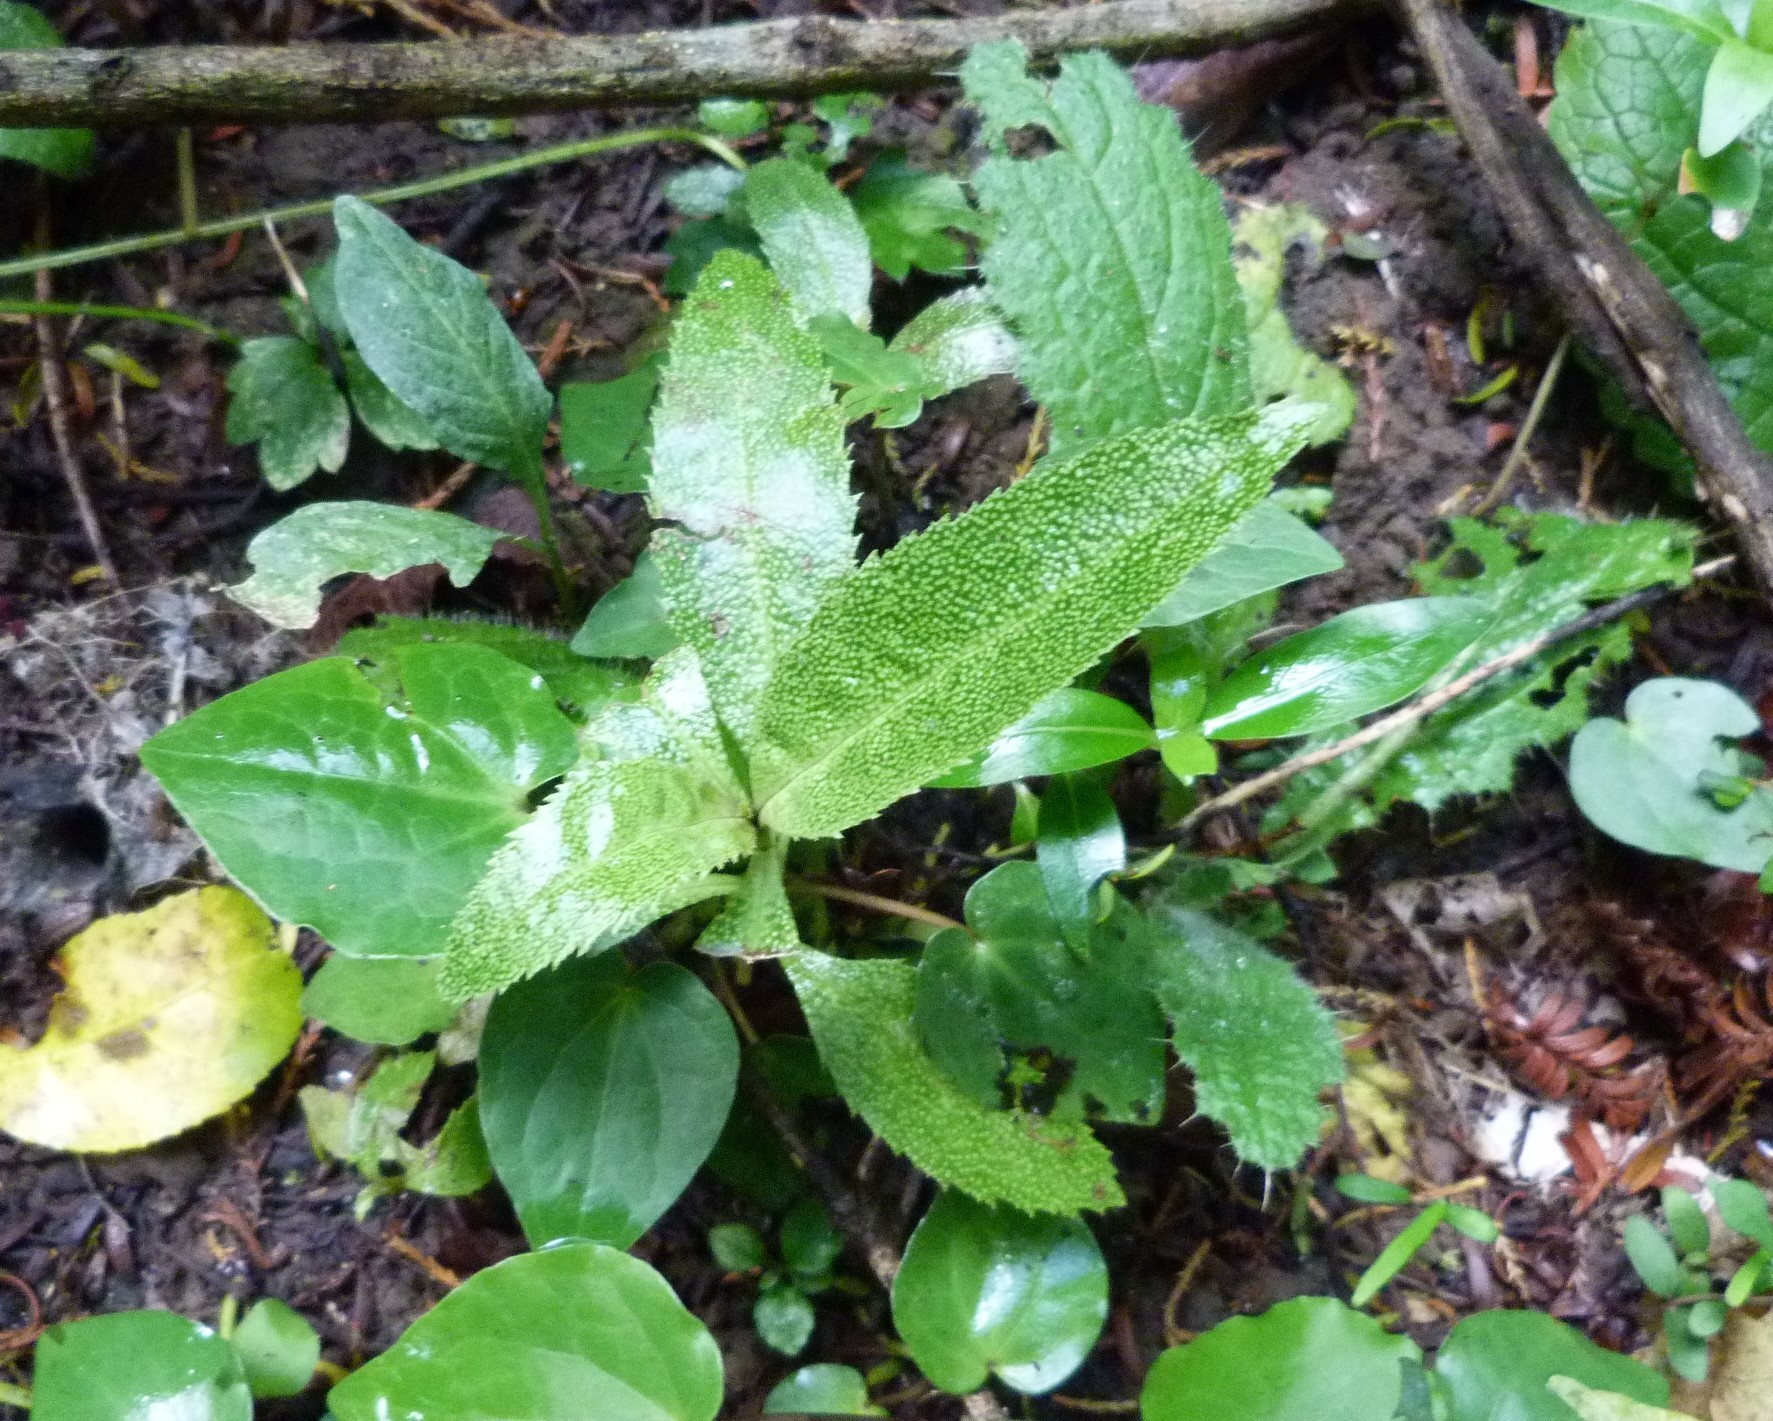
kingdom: Plantae
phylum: Tracheophyta
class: Magnoliopsida
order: Lamiales
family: Scrophulariaceae
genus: Myoporum
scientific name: Myoporum laetum
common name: Ngaio tree
